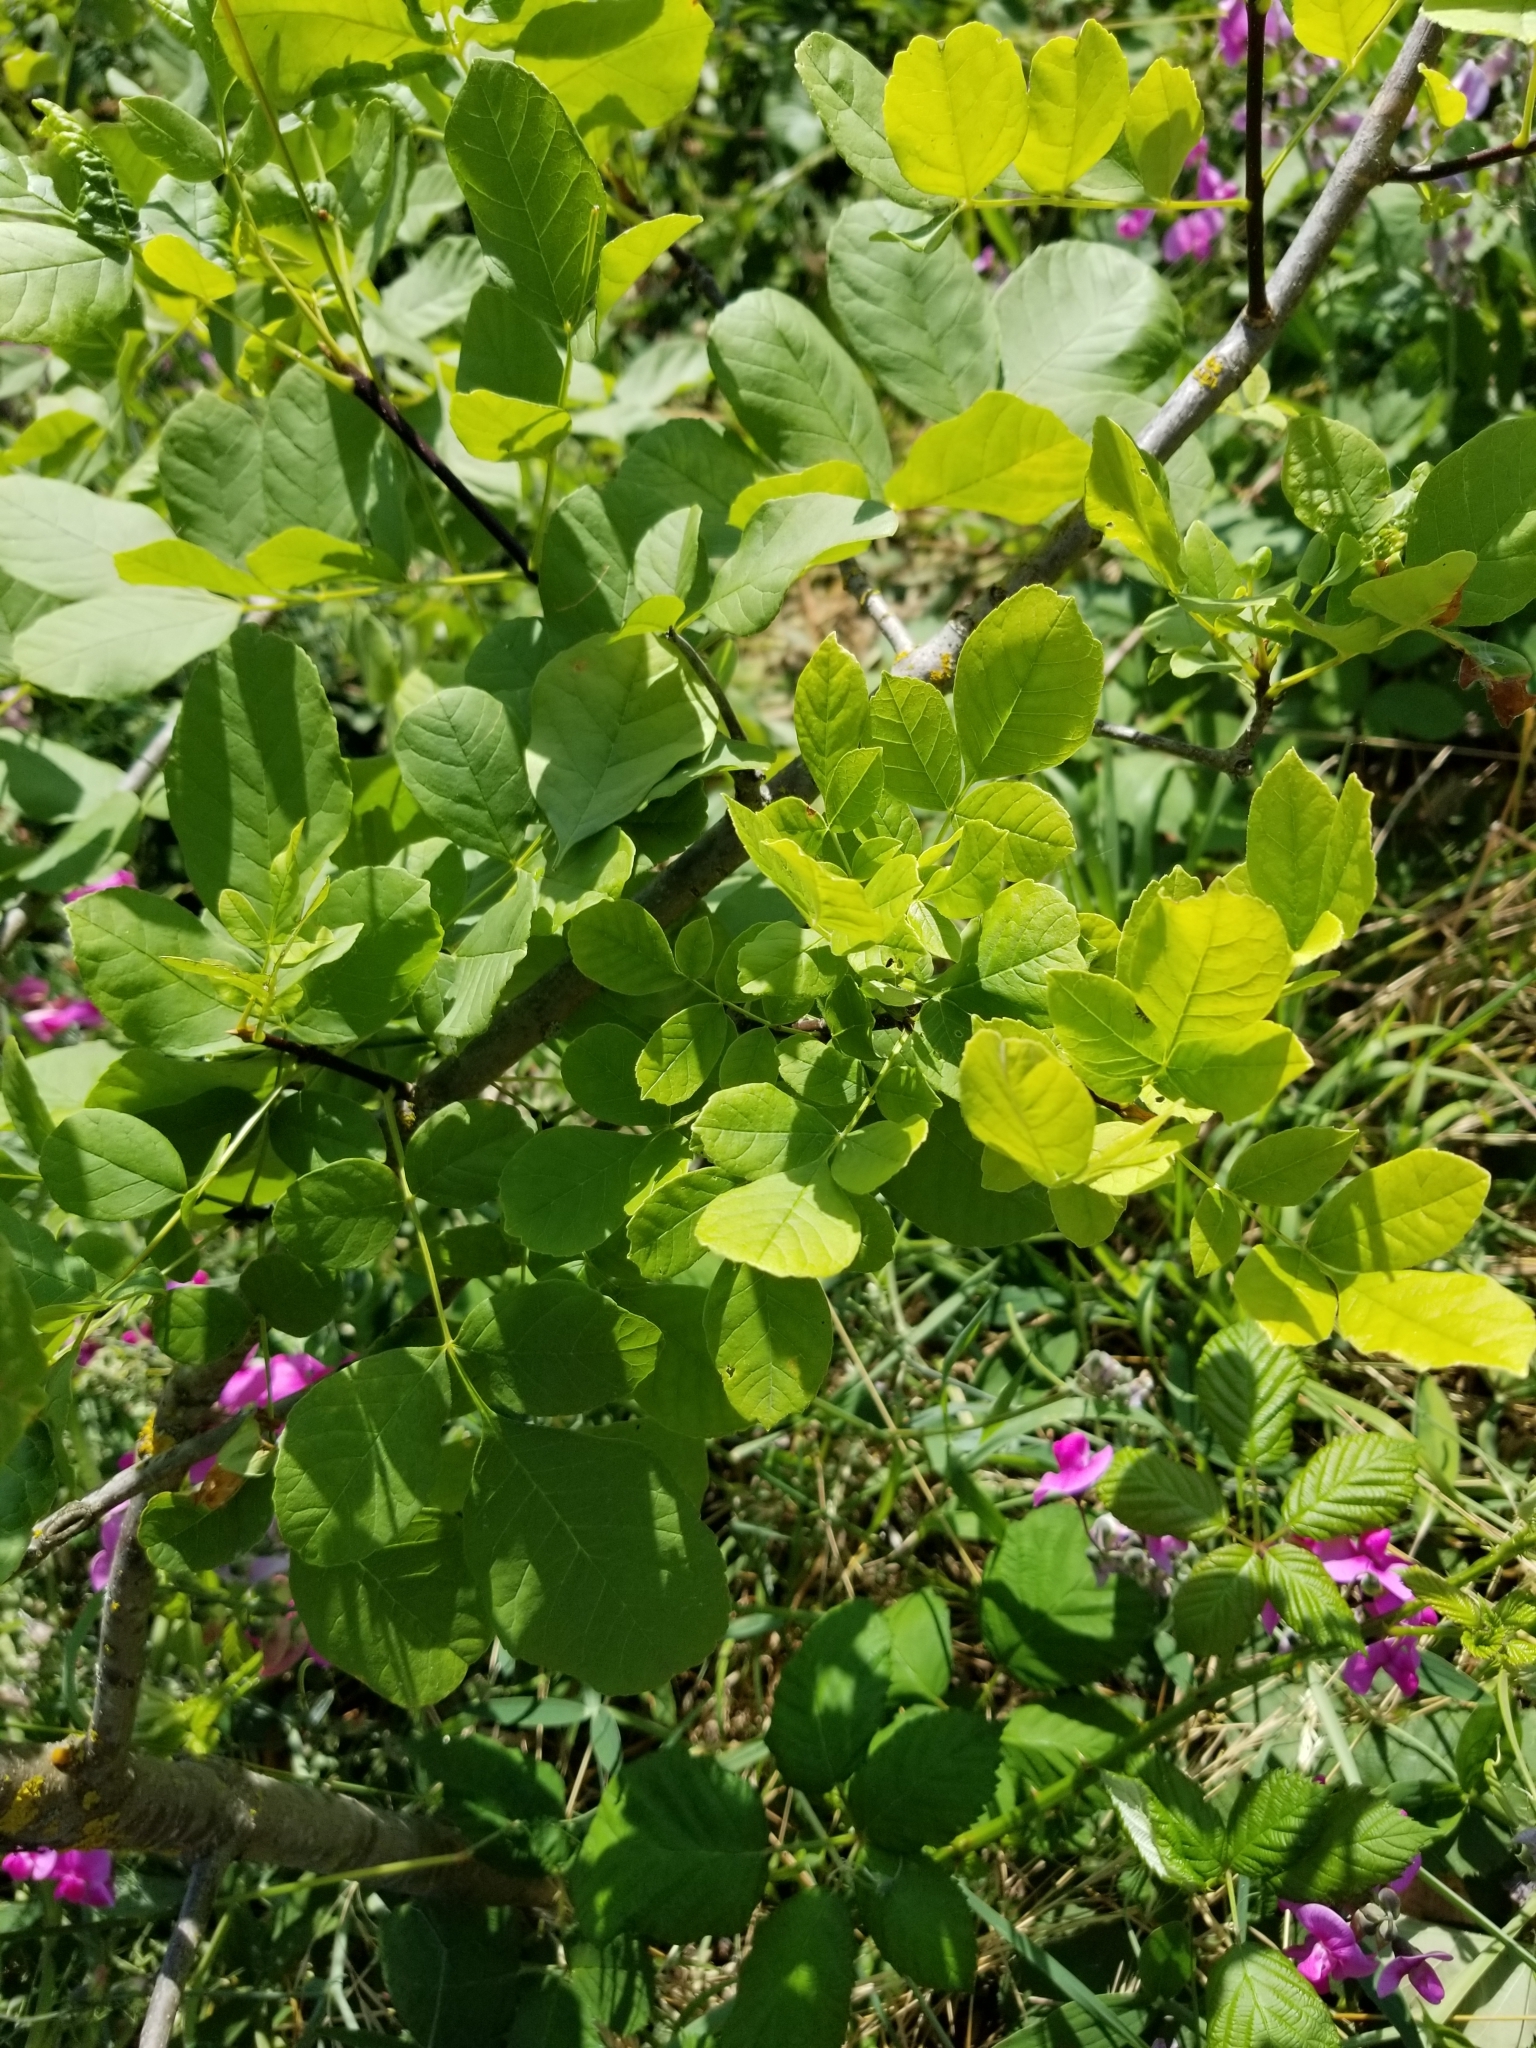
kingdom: Plantae
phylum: Tracheophyta
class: Magnoliopsida
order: Lamiales
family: Oleaceae
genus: Fraxinus
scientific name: Fraxinus latifolia
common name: Oregon ash
